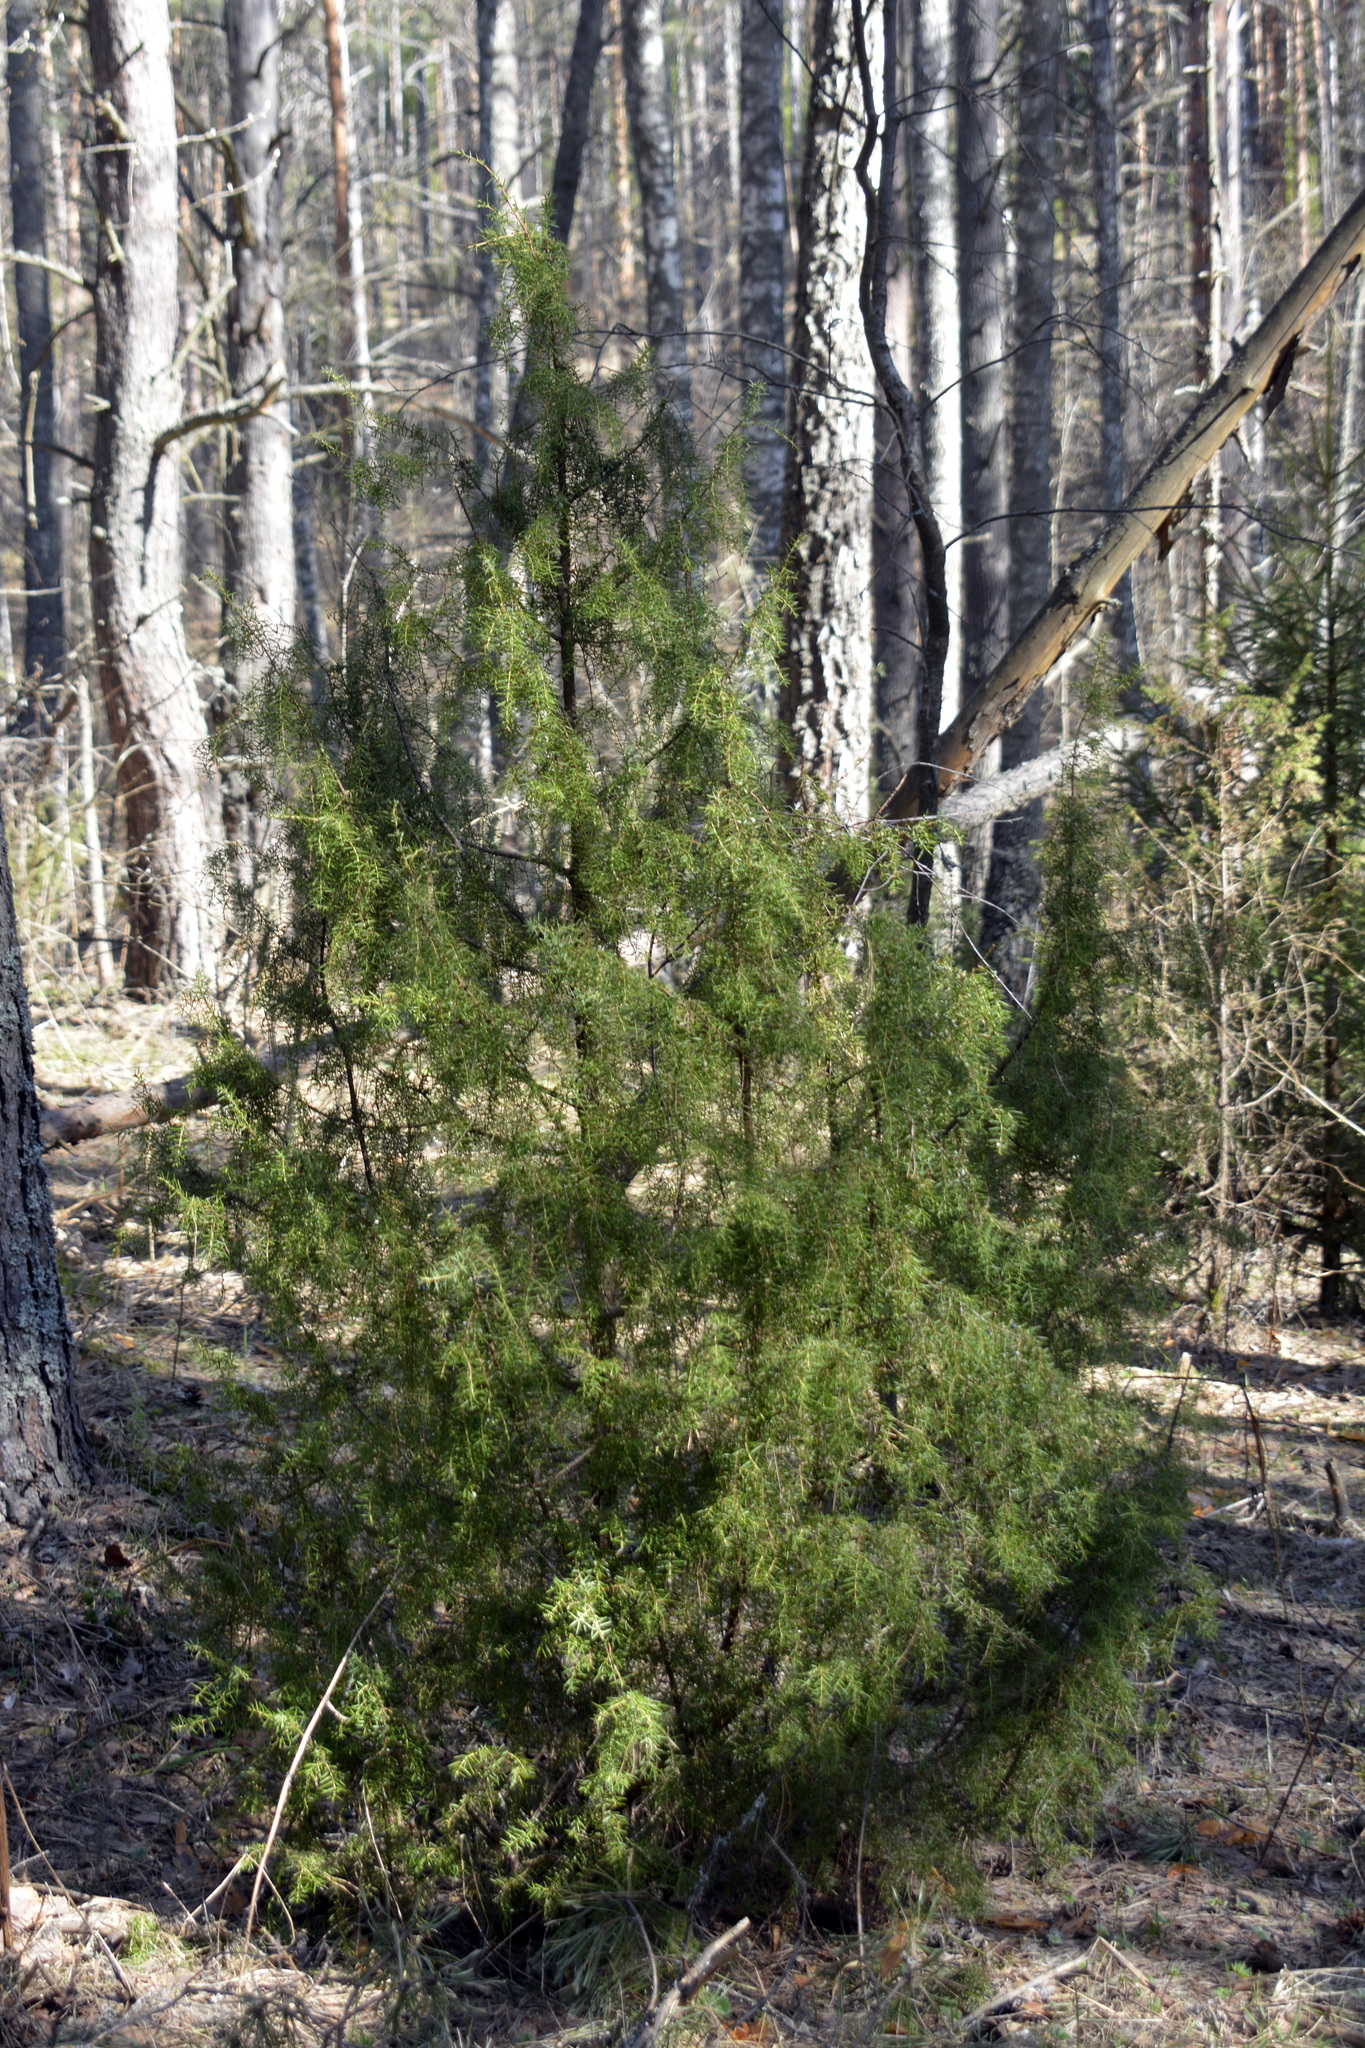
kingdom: Plantae
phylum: Tracheophyta
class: Pinopsida
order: Pinales
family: Cupressaceae
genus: Juniperus
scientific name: Juniperus communis
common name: Common juniper
